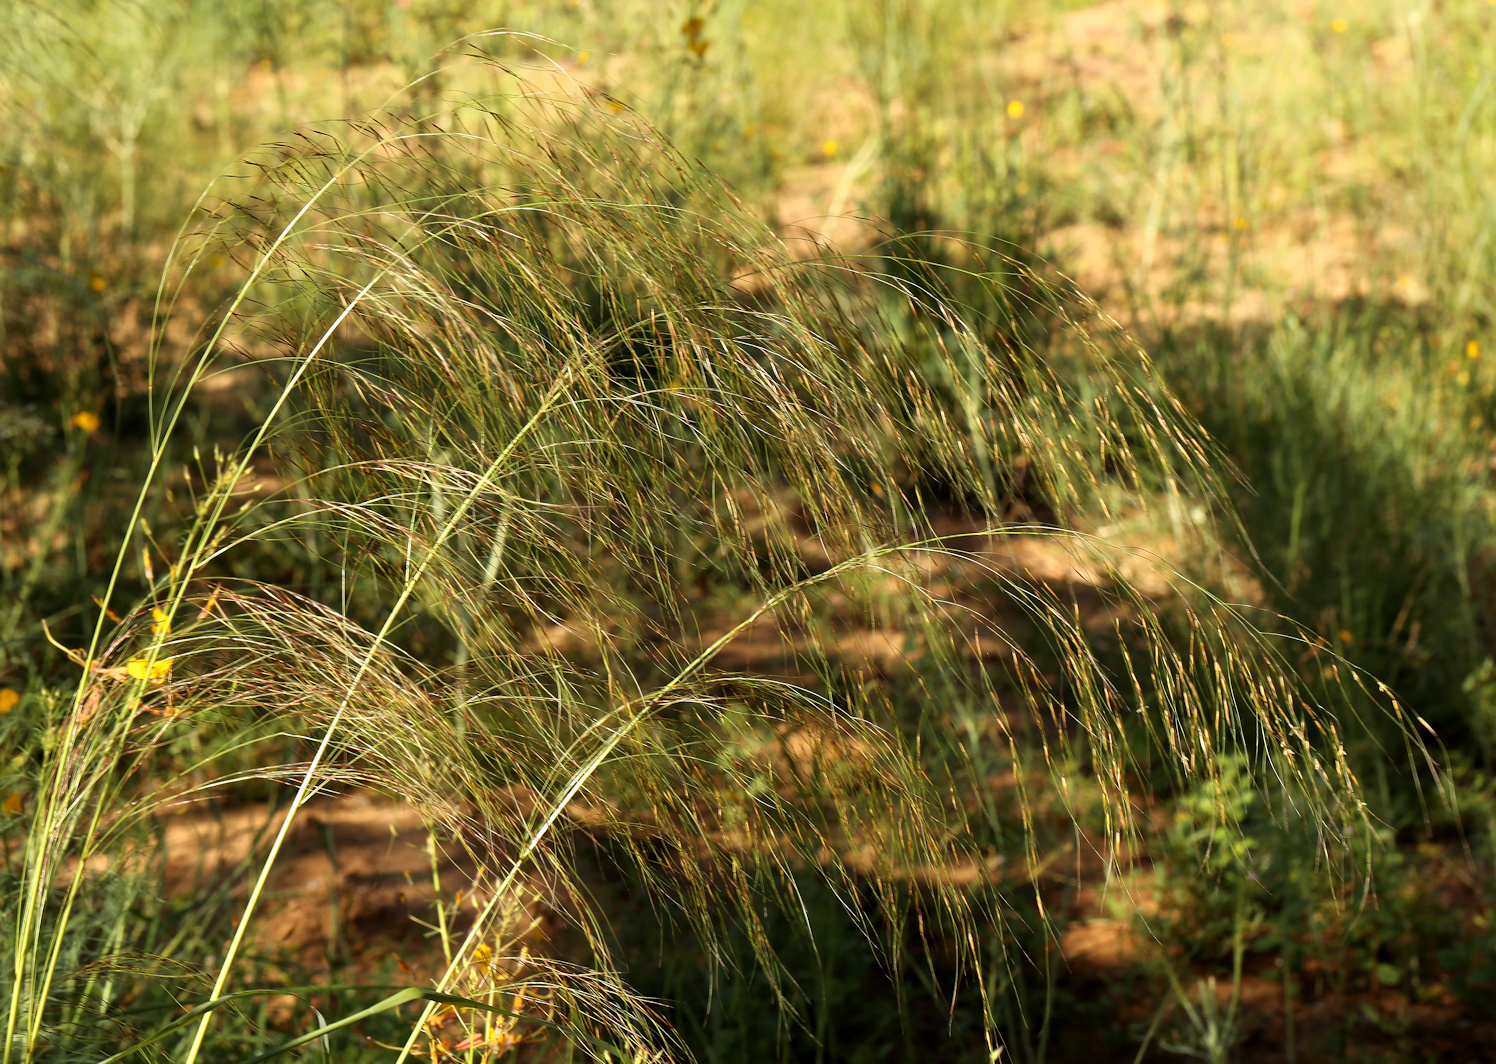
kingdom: Plantae
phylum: Tracheophyta
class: Liliopsida
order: Poales
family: Poaceae
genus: Aristida
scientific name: Aristida meridionalis
